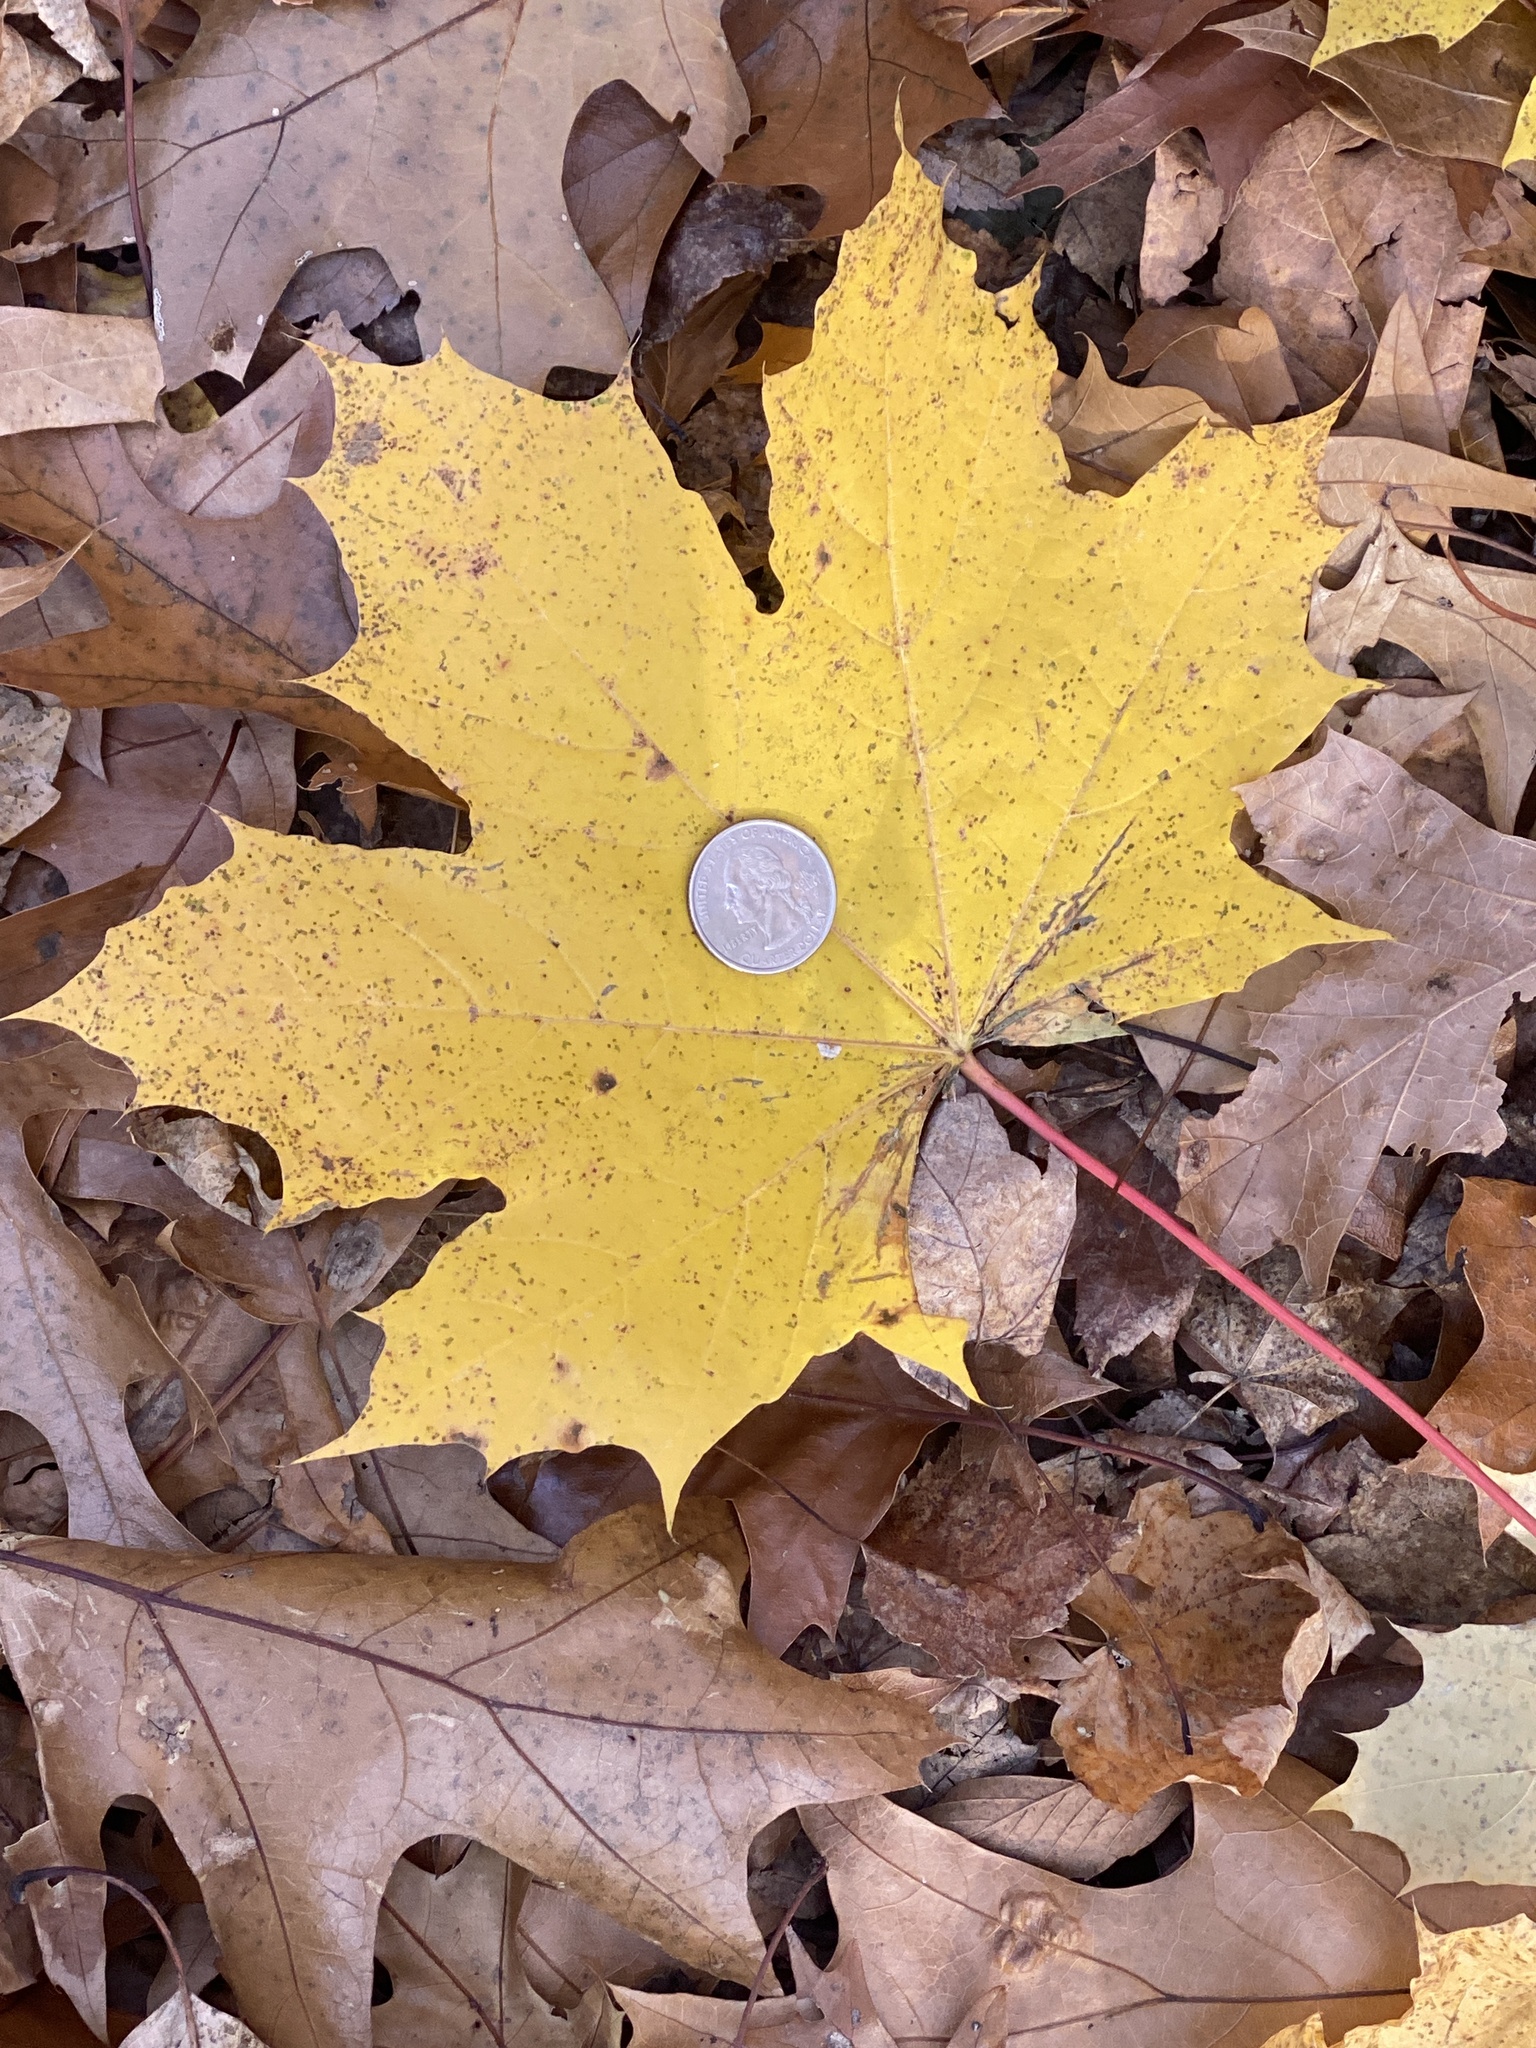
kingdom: Plantae
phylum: Tracheophyta
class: Magnoliopsida
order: Sapindales
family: Sapindaceae
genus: Acer
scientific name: Acer platanoides
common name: Norway maple
